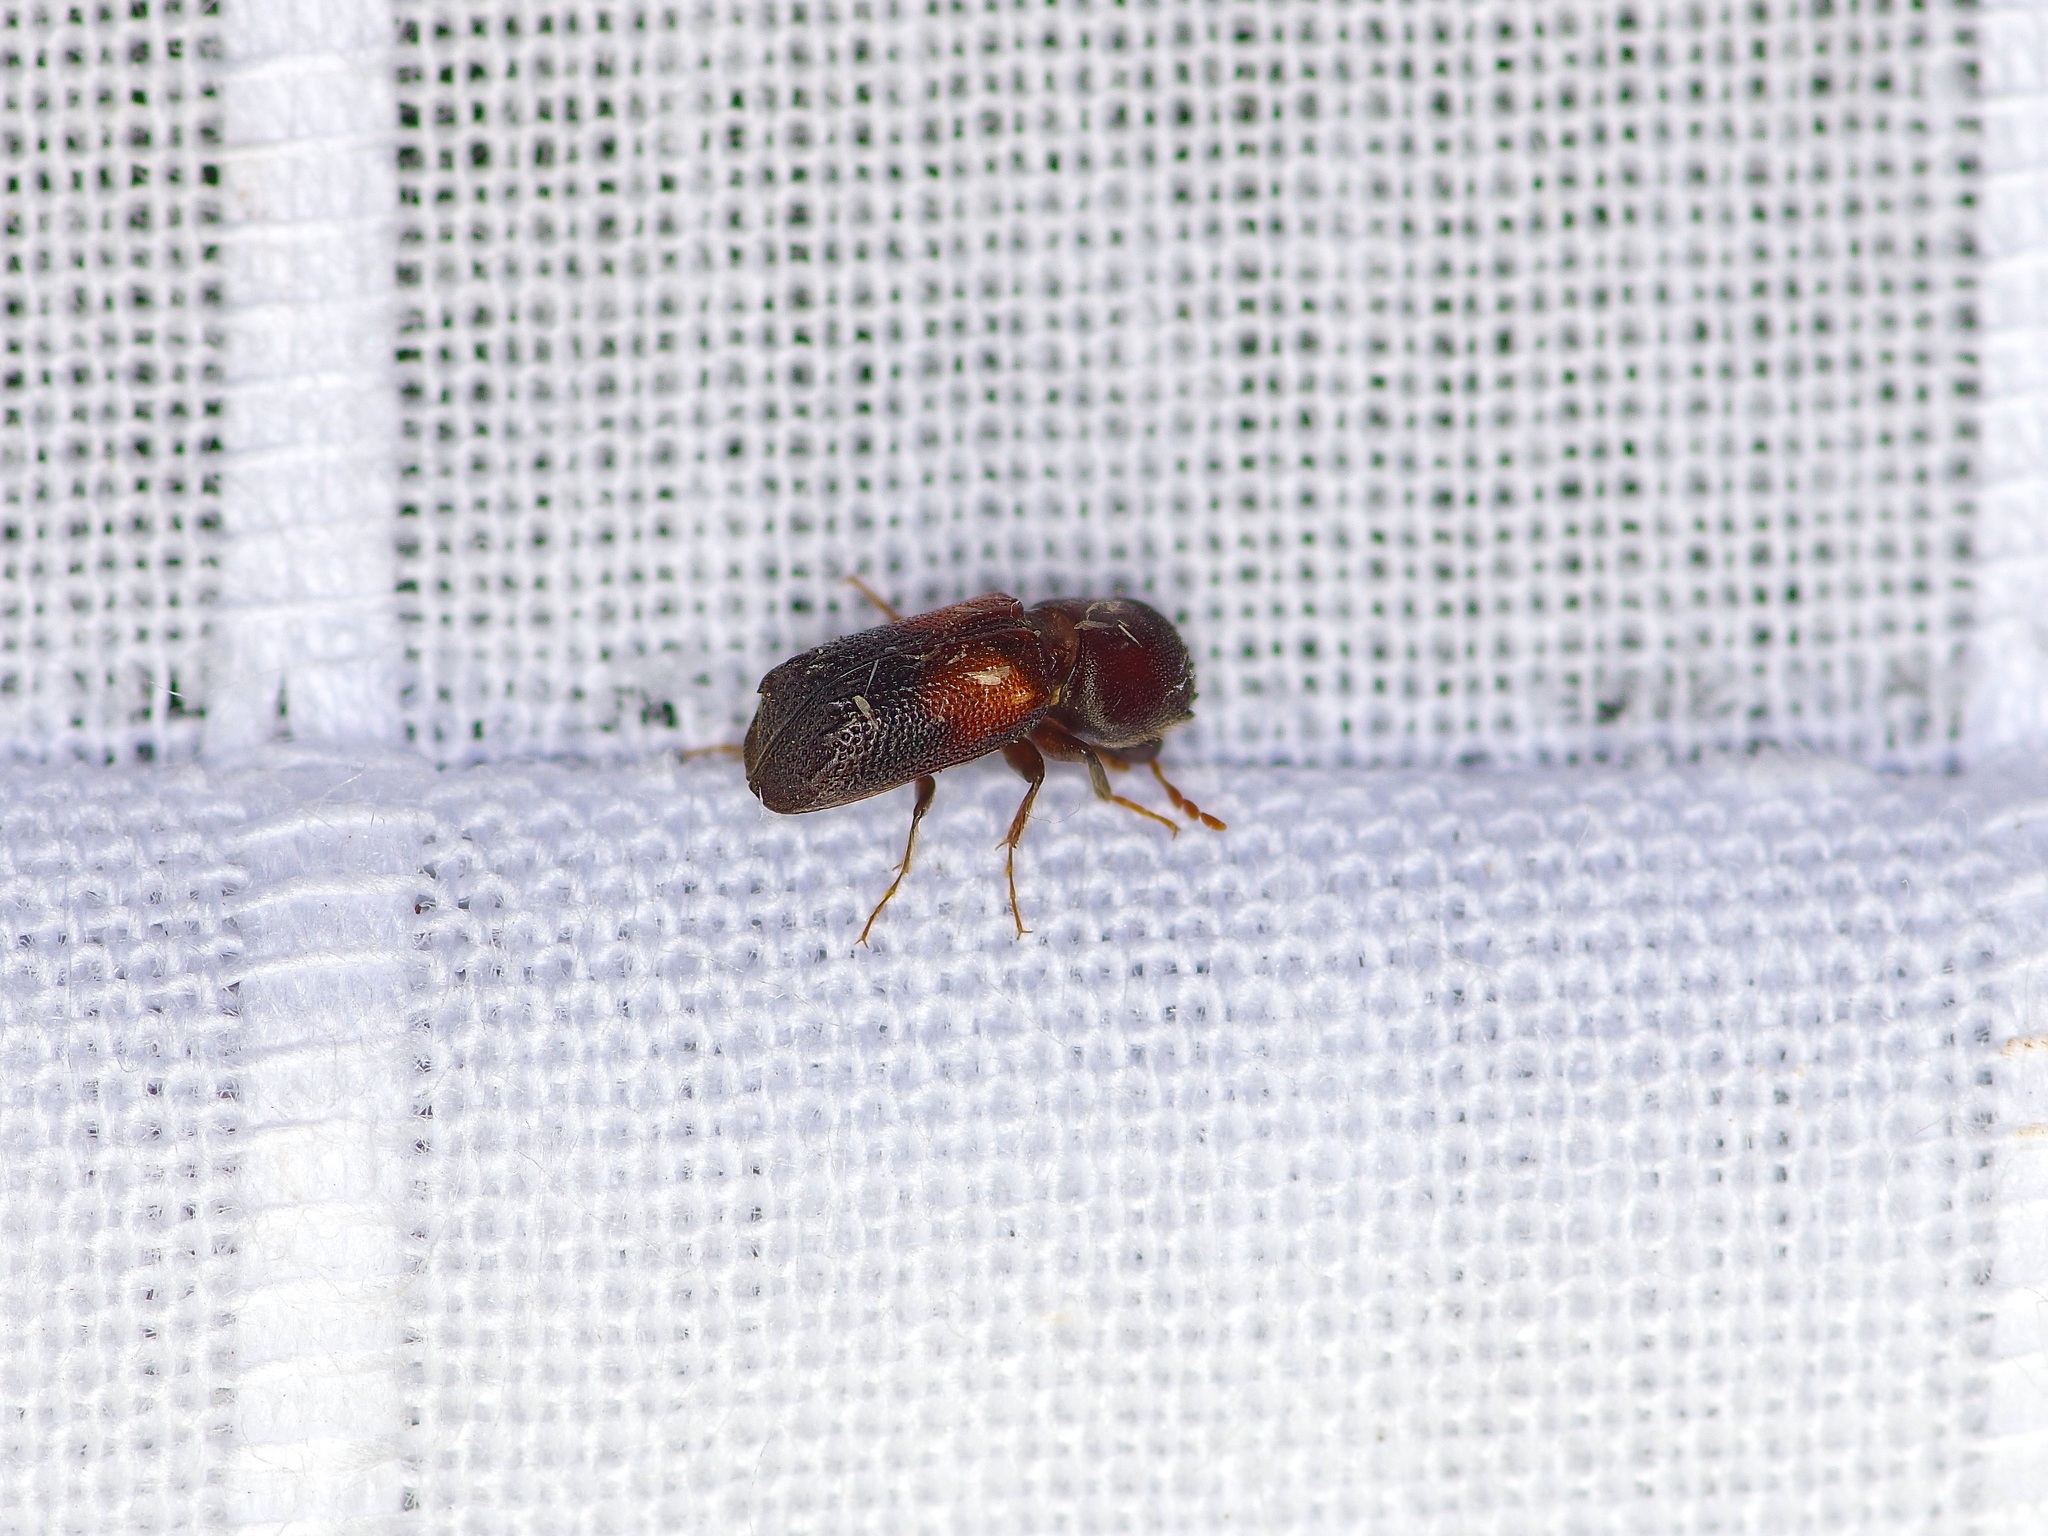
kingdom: Animalia
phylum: Arthropoda
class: Insecta
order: Coleoptera
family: Bostrichidae
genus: Xylobiops
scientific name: Xylobiops basilaris
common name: Red-shouldered bostrichid
